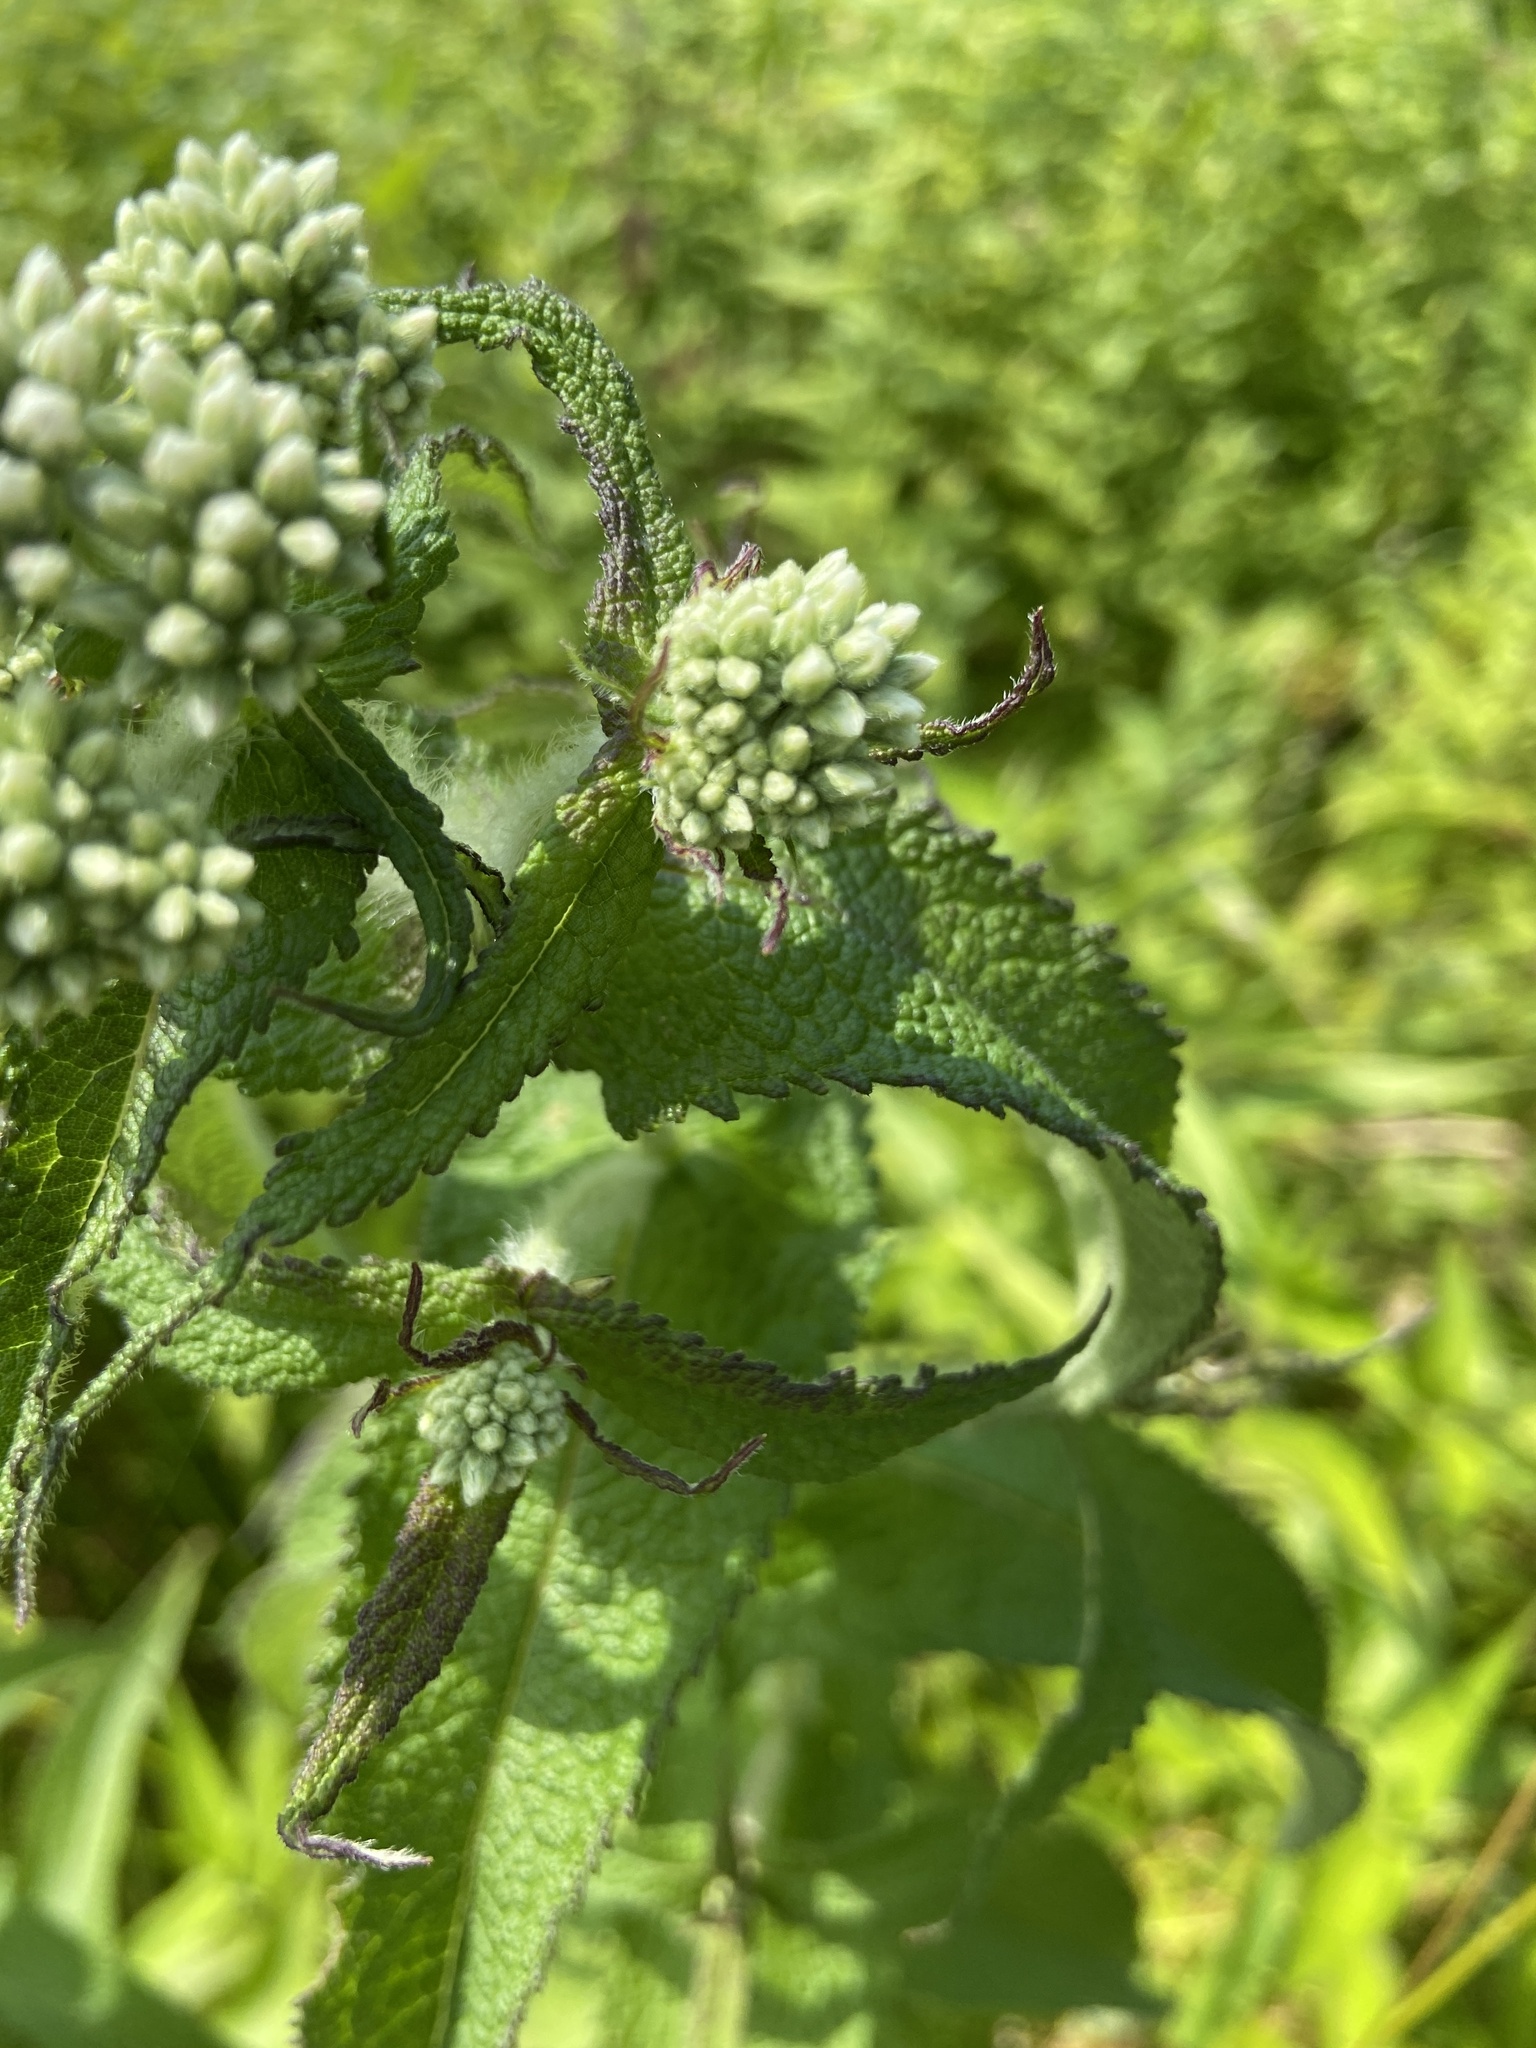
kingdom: Plantae
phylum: Tracheophyta
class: Magnoliopsida
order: Asterales
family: Asteraceae
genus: Eupatorium
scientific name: Eupatorium perfoliatum
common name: Boneset
